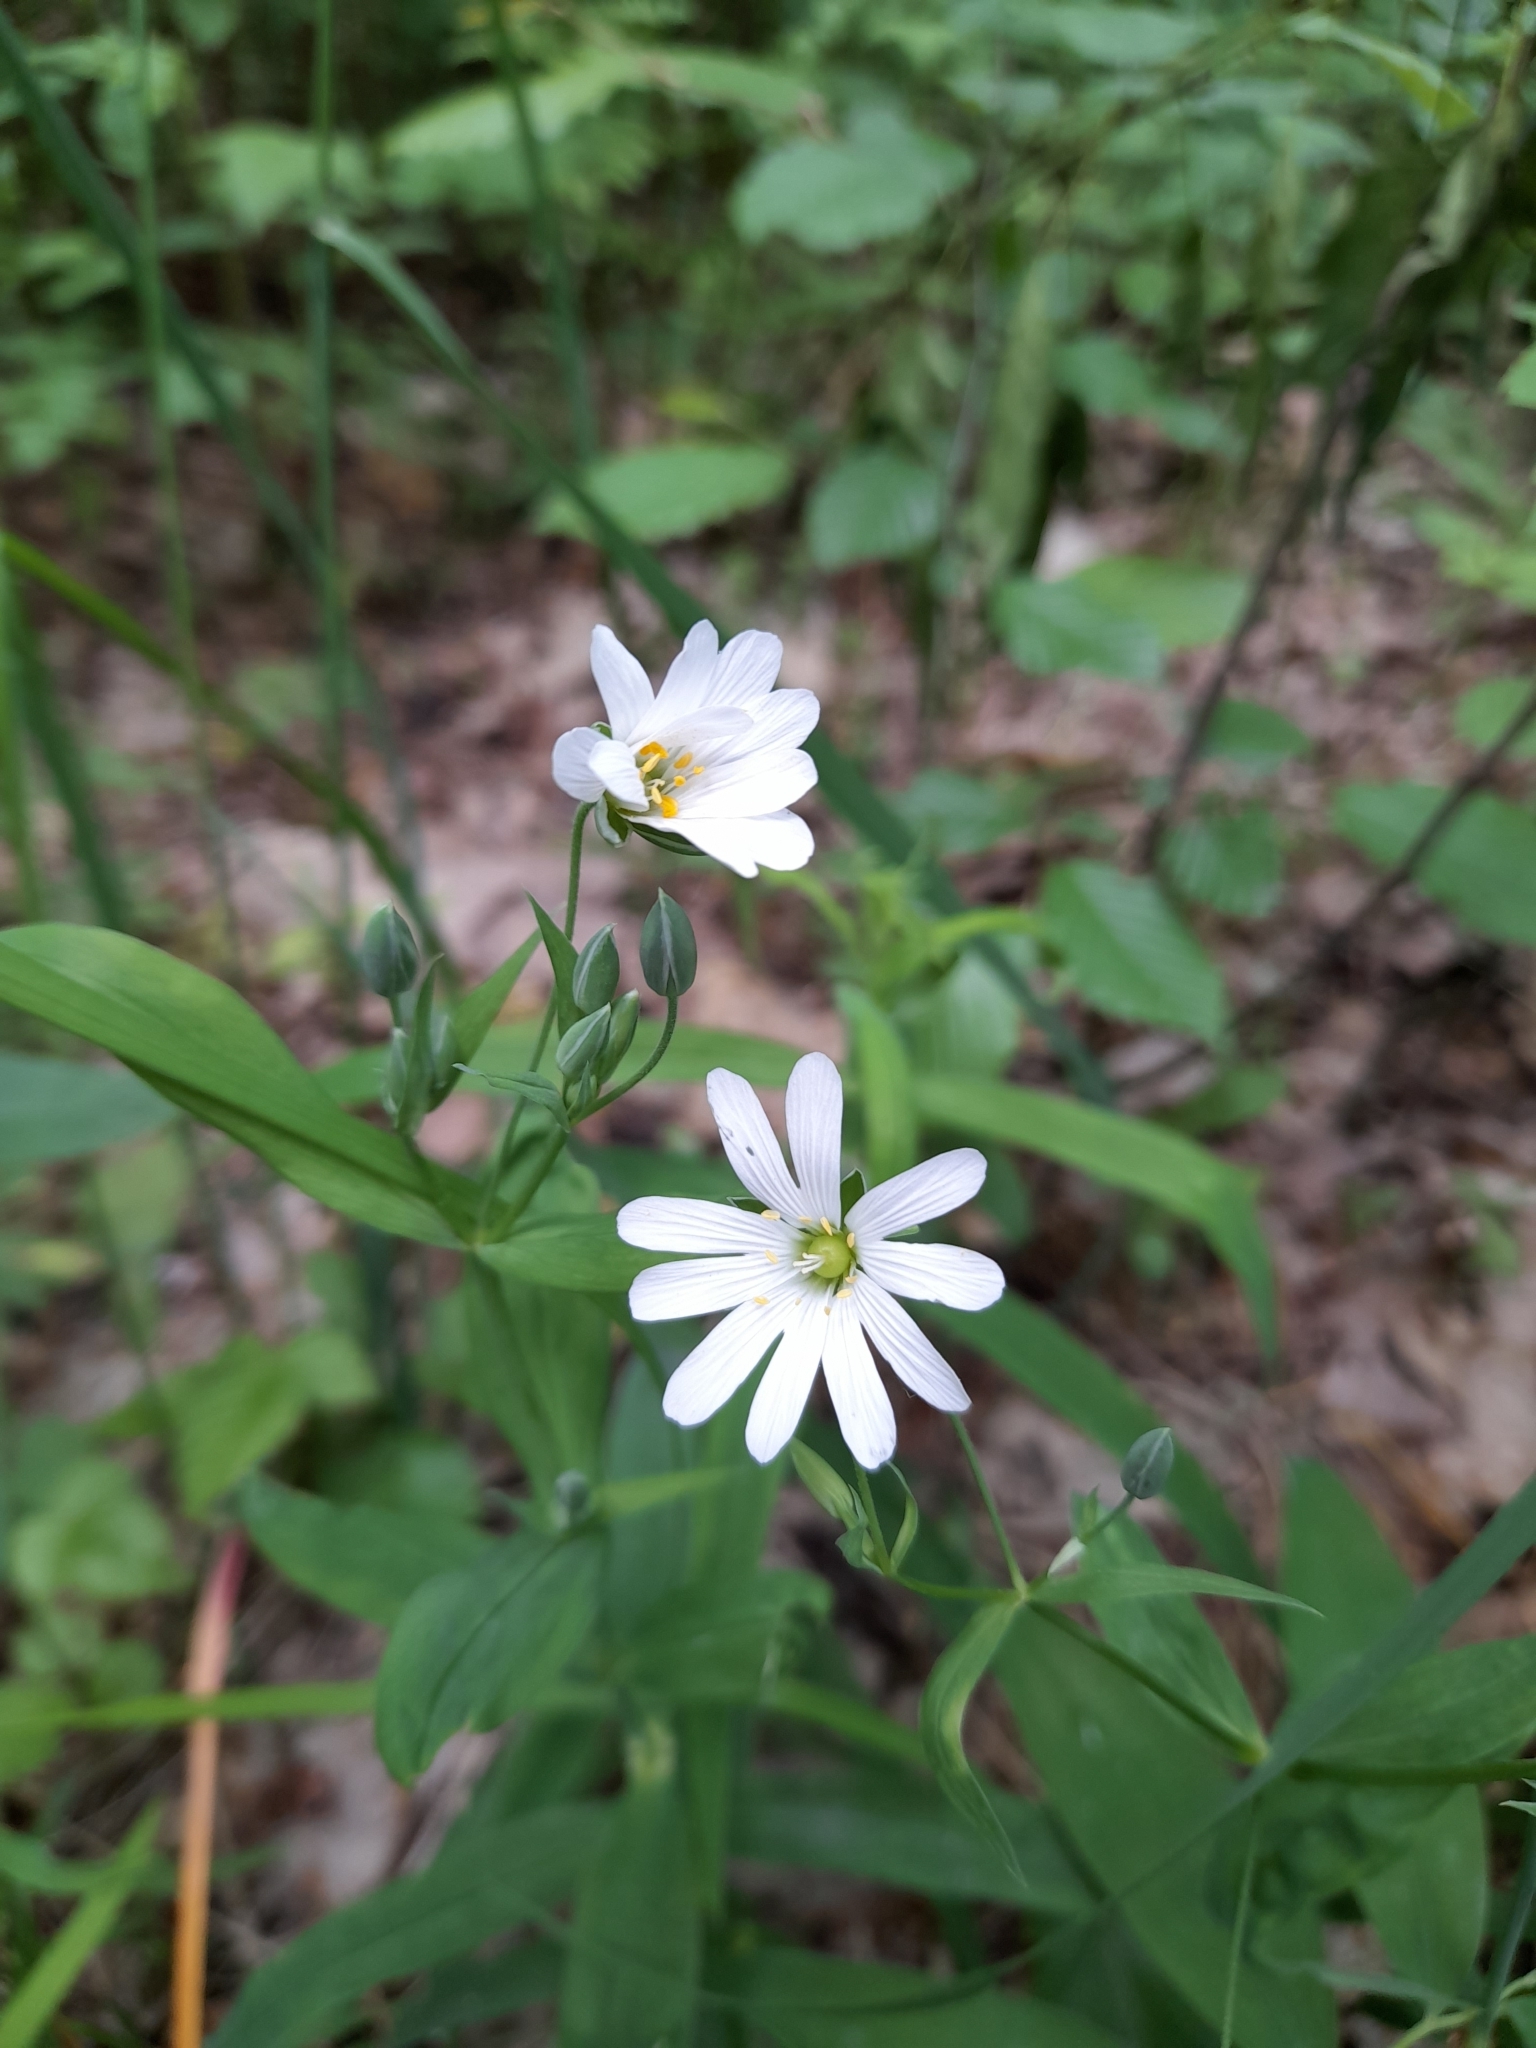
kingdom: Plantae
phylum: Tracheophyta
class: Magnoliopsida
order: Caryophyllales
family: Caryophyllaceae
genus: Rabelera
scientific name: Rabelera holostea
